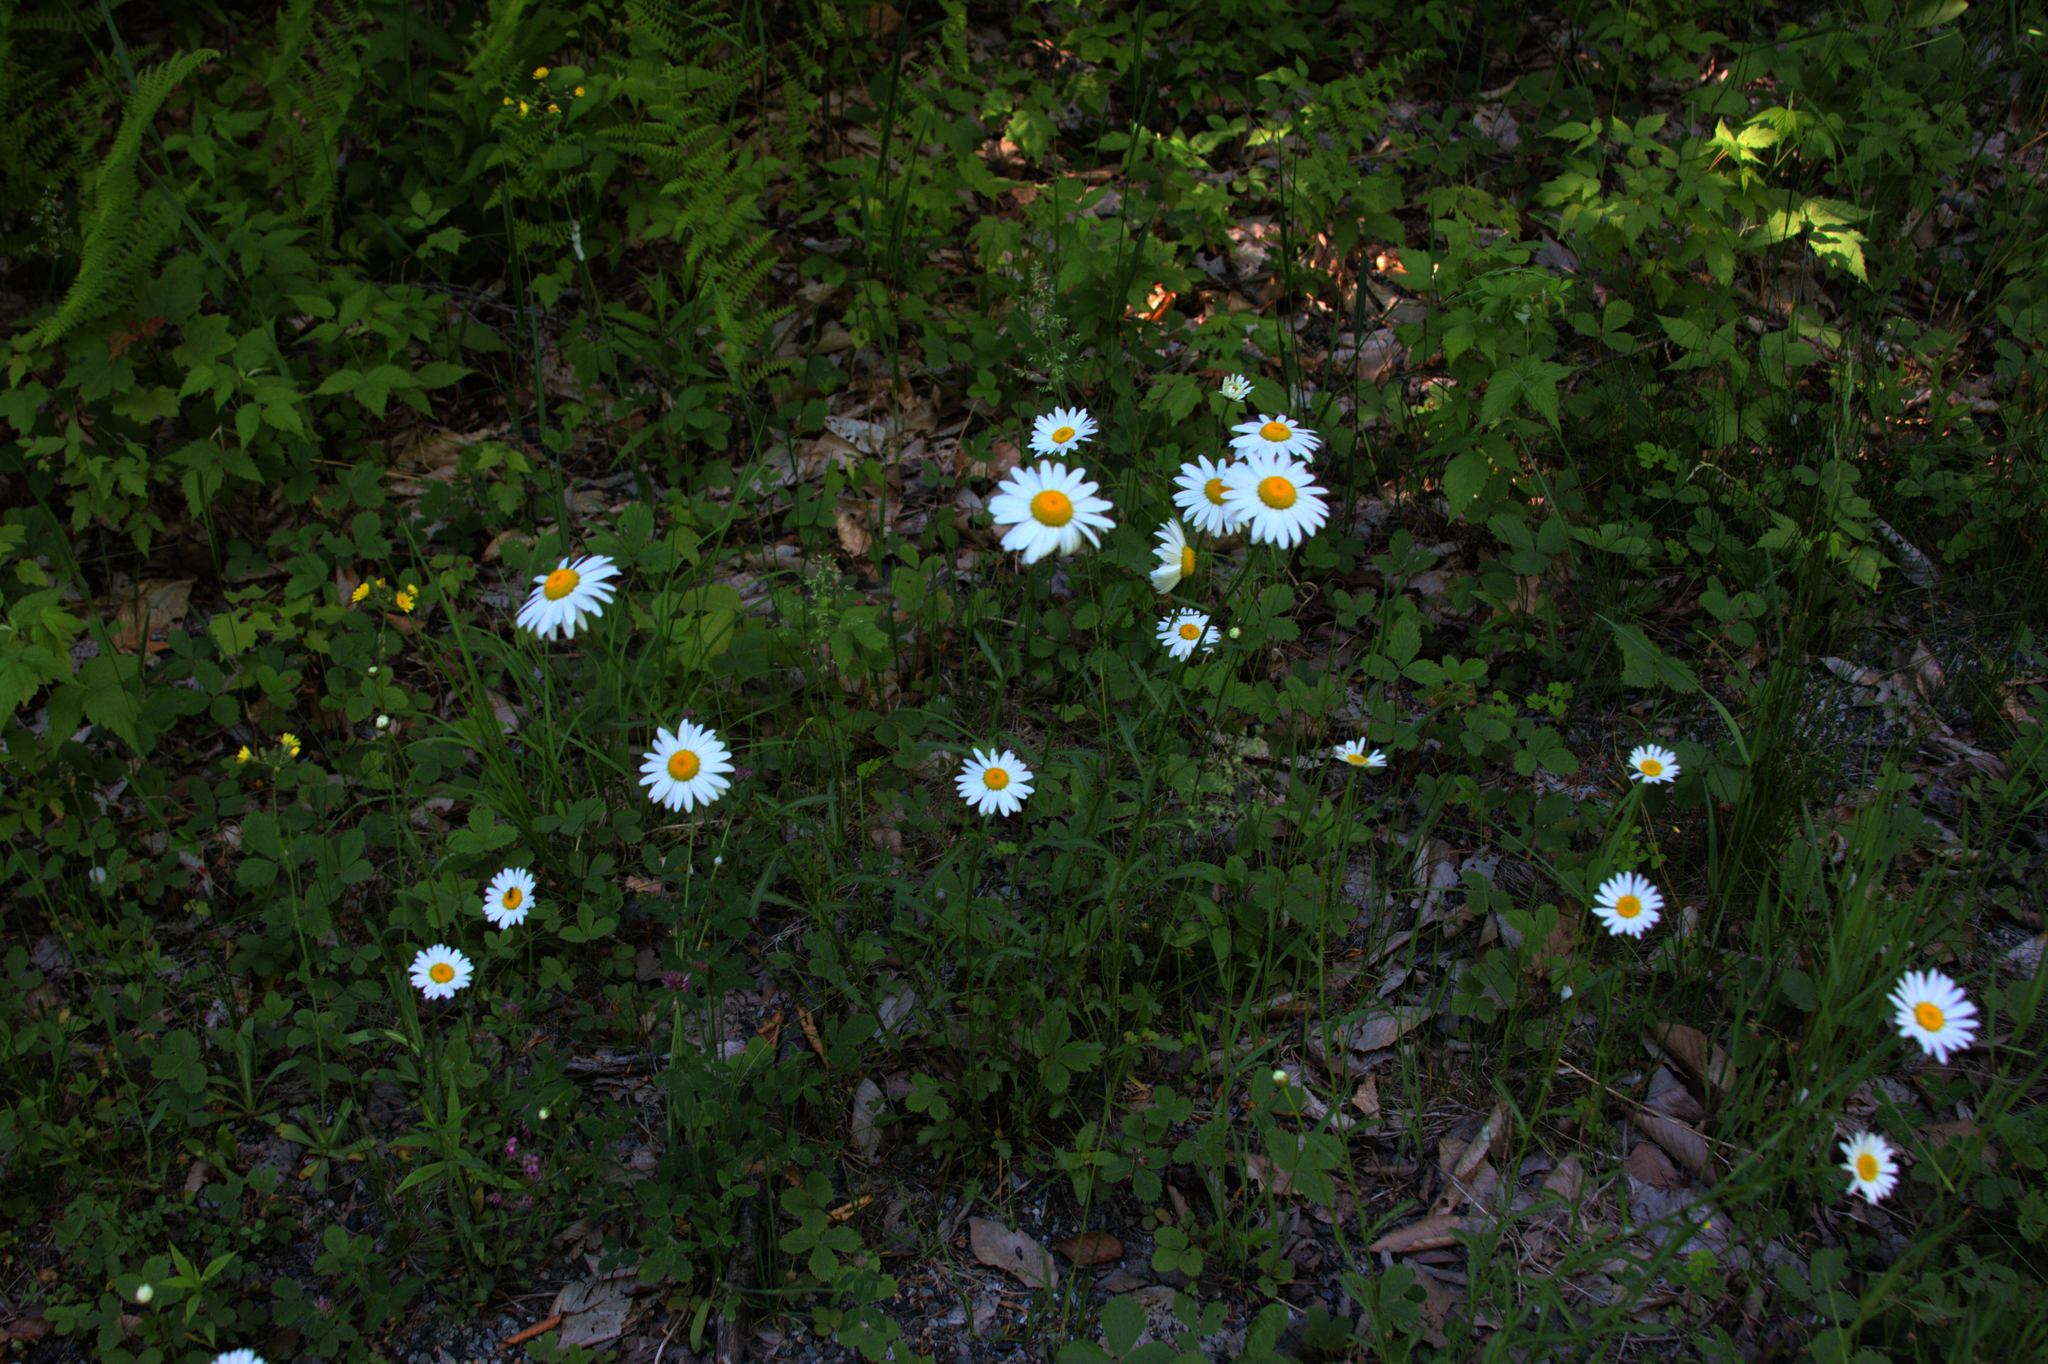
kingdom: Plantae
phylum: Tracheophyta
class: Magnoliopsida
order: Asterales
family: Asteraceae
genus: Leucanthemum
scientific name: Leucanthemum vulgare
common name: Oxeye daisy
